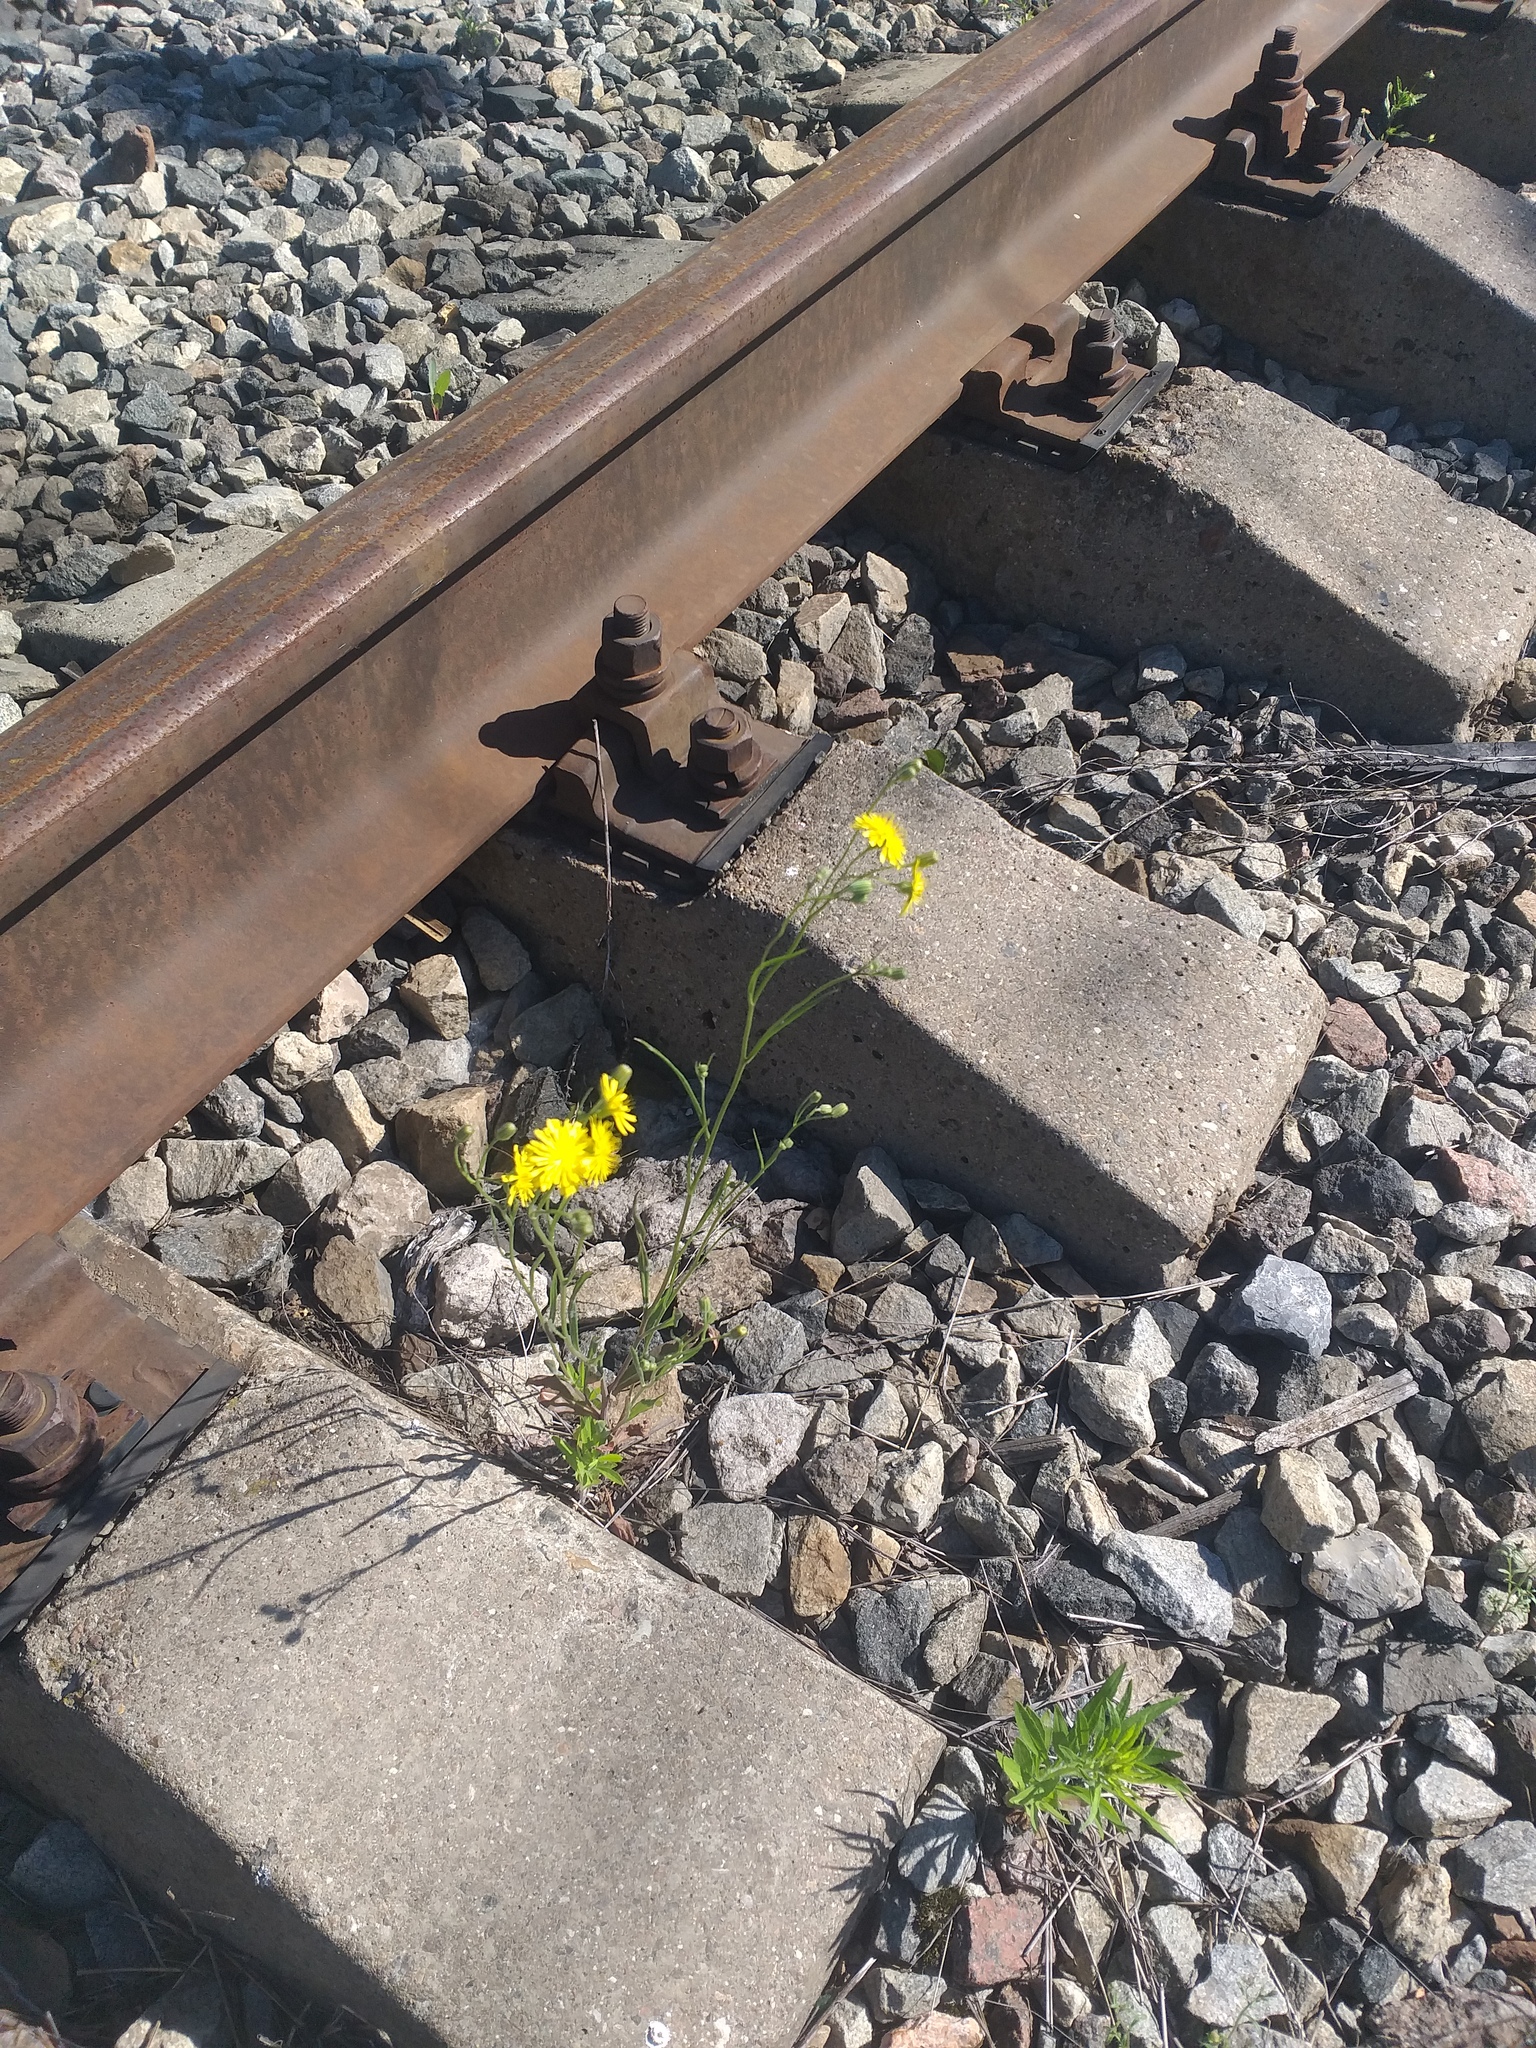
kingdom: Plantae
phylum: Tracheophyta
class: Magnoliopsida
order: Asterales
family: Asteraceae
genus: Crepis
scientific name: Crepis tectorum
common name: Narrow-leaved hawk's-beard
